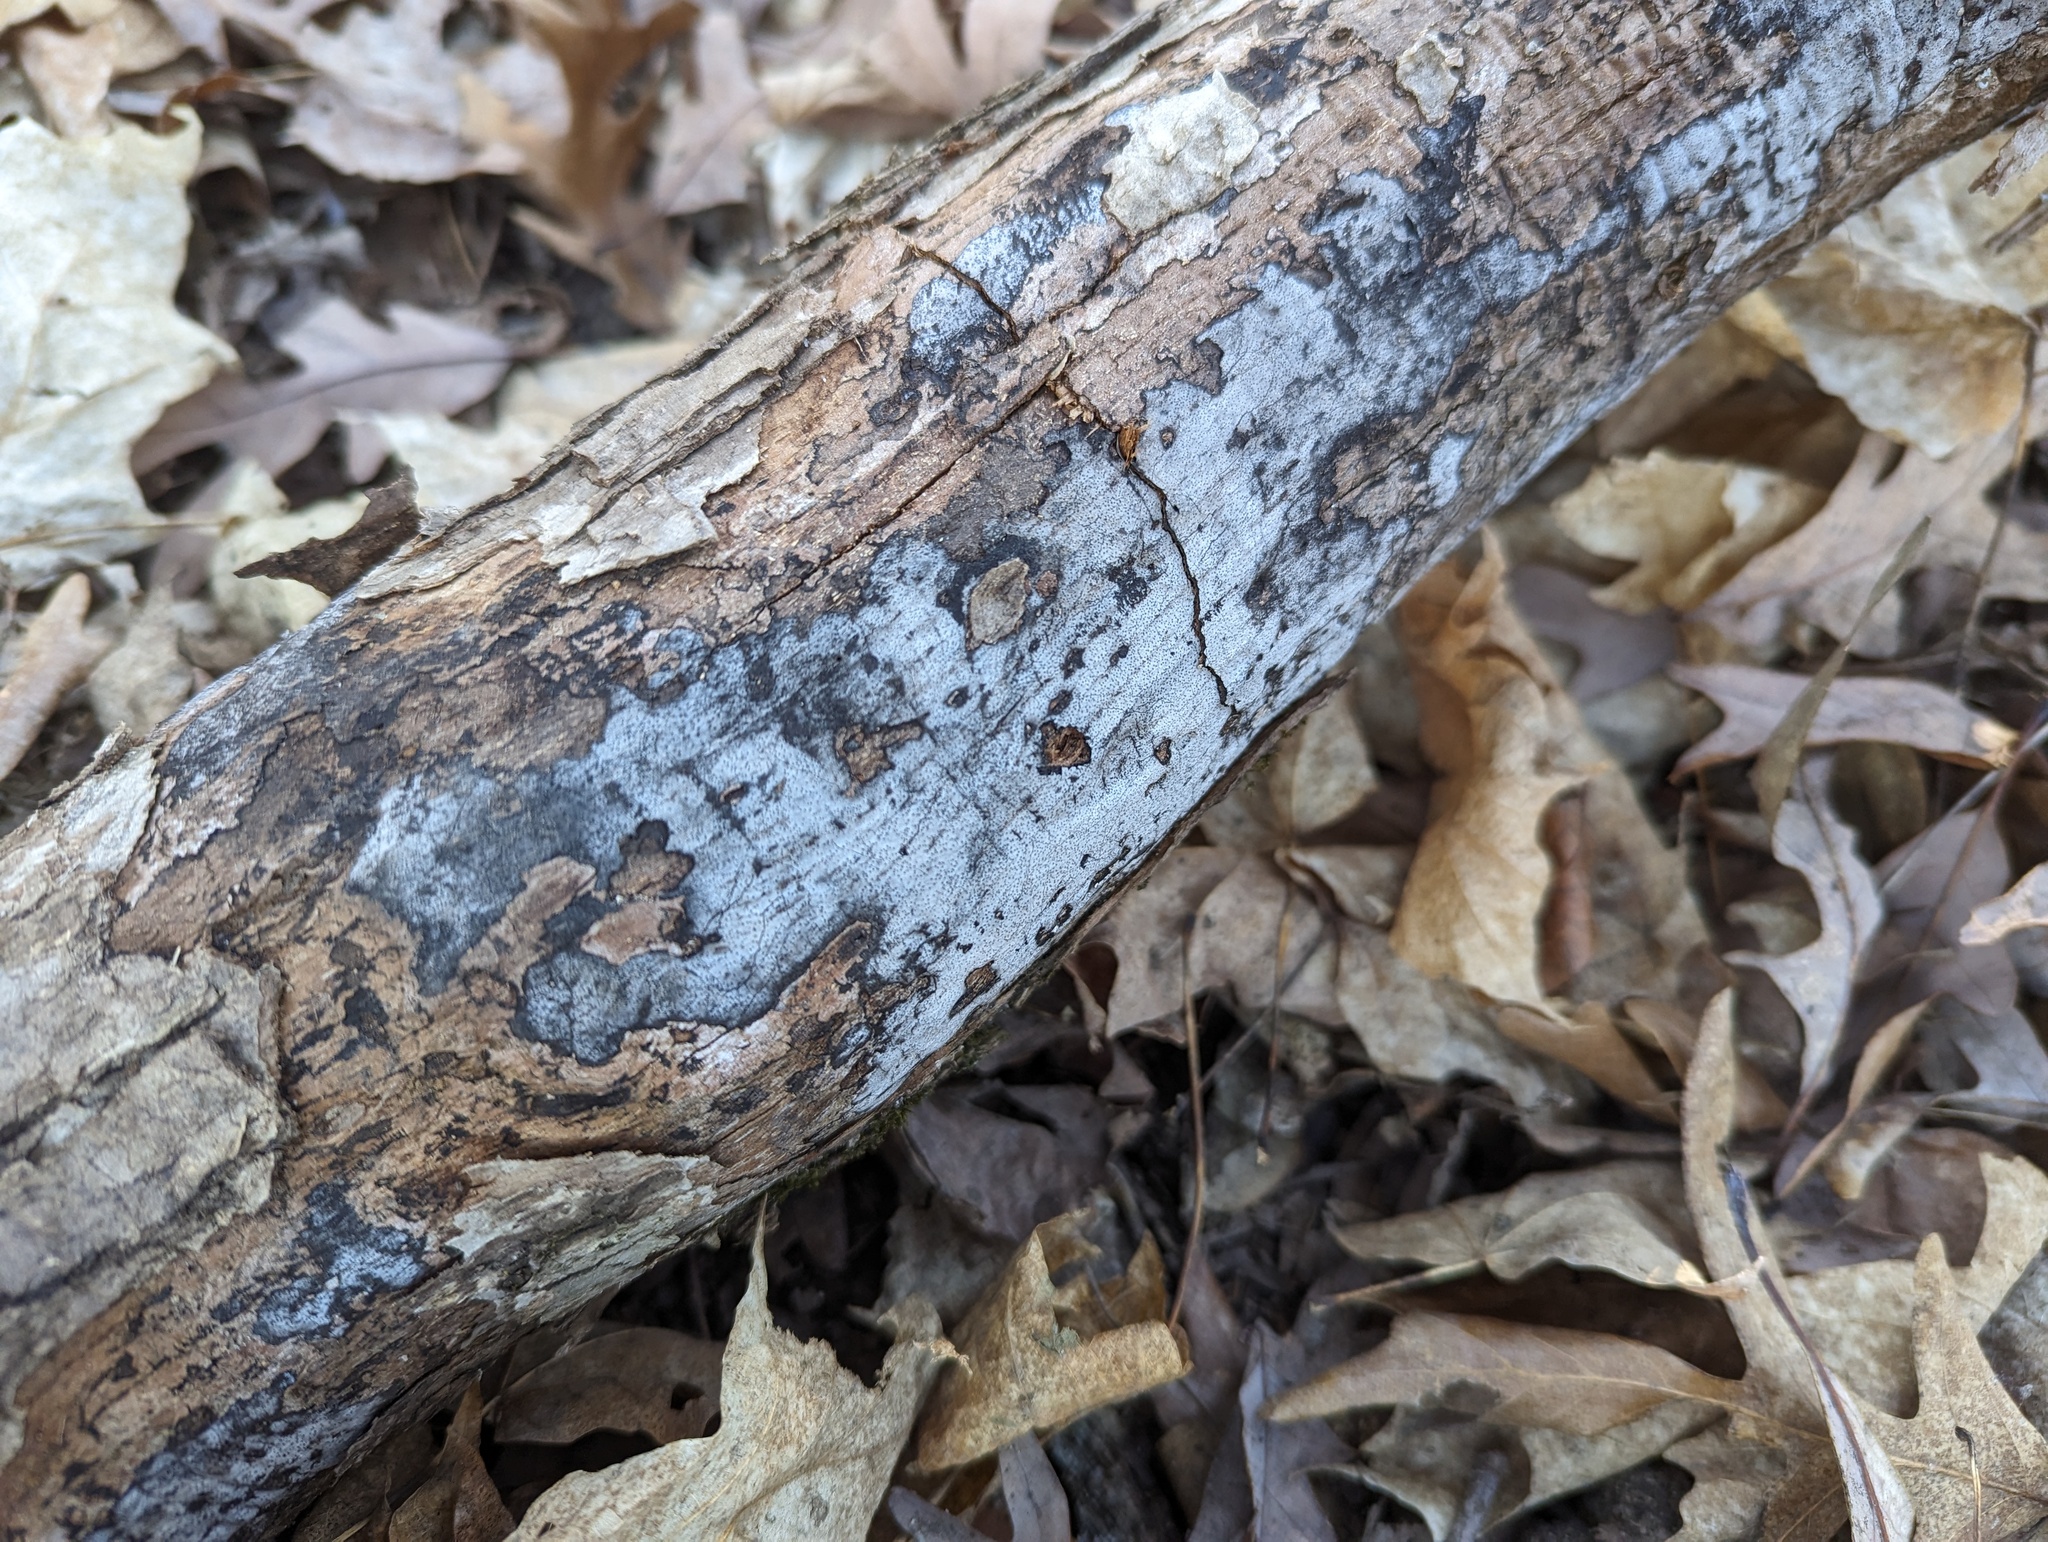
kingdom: Fungi
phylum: Ascomycota
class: Sordariomycetes
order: Xylariales
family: Graphostromataceae
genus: Biscogniauxia
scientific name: Biscogniauxia atropunctata
